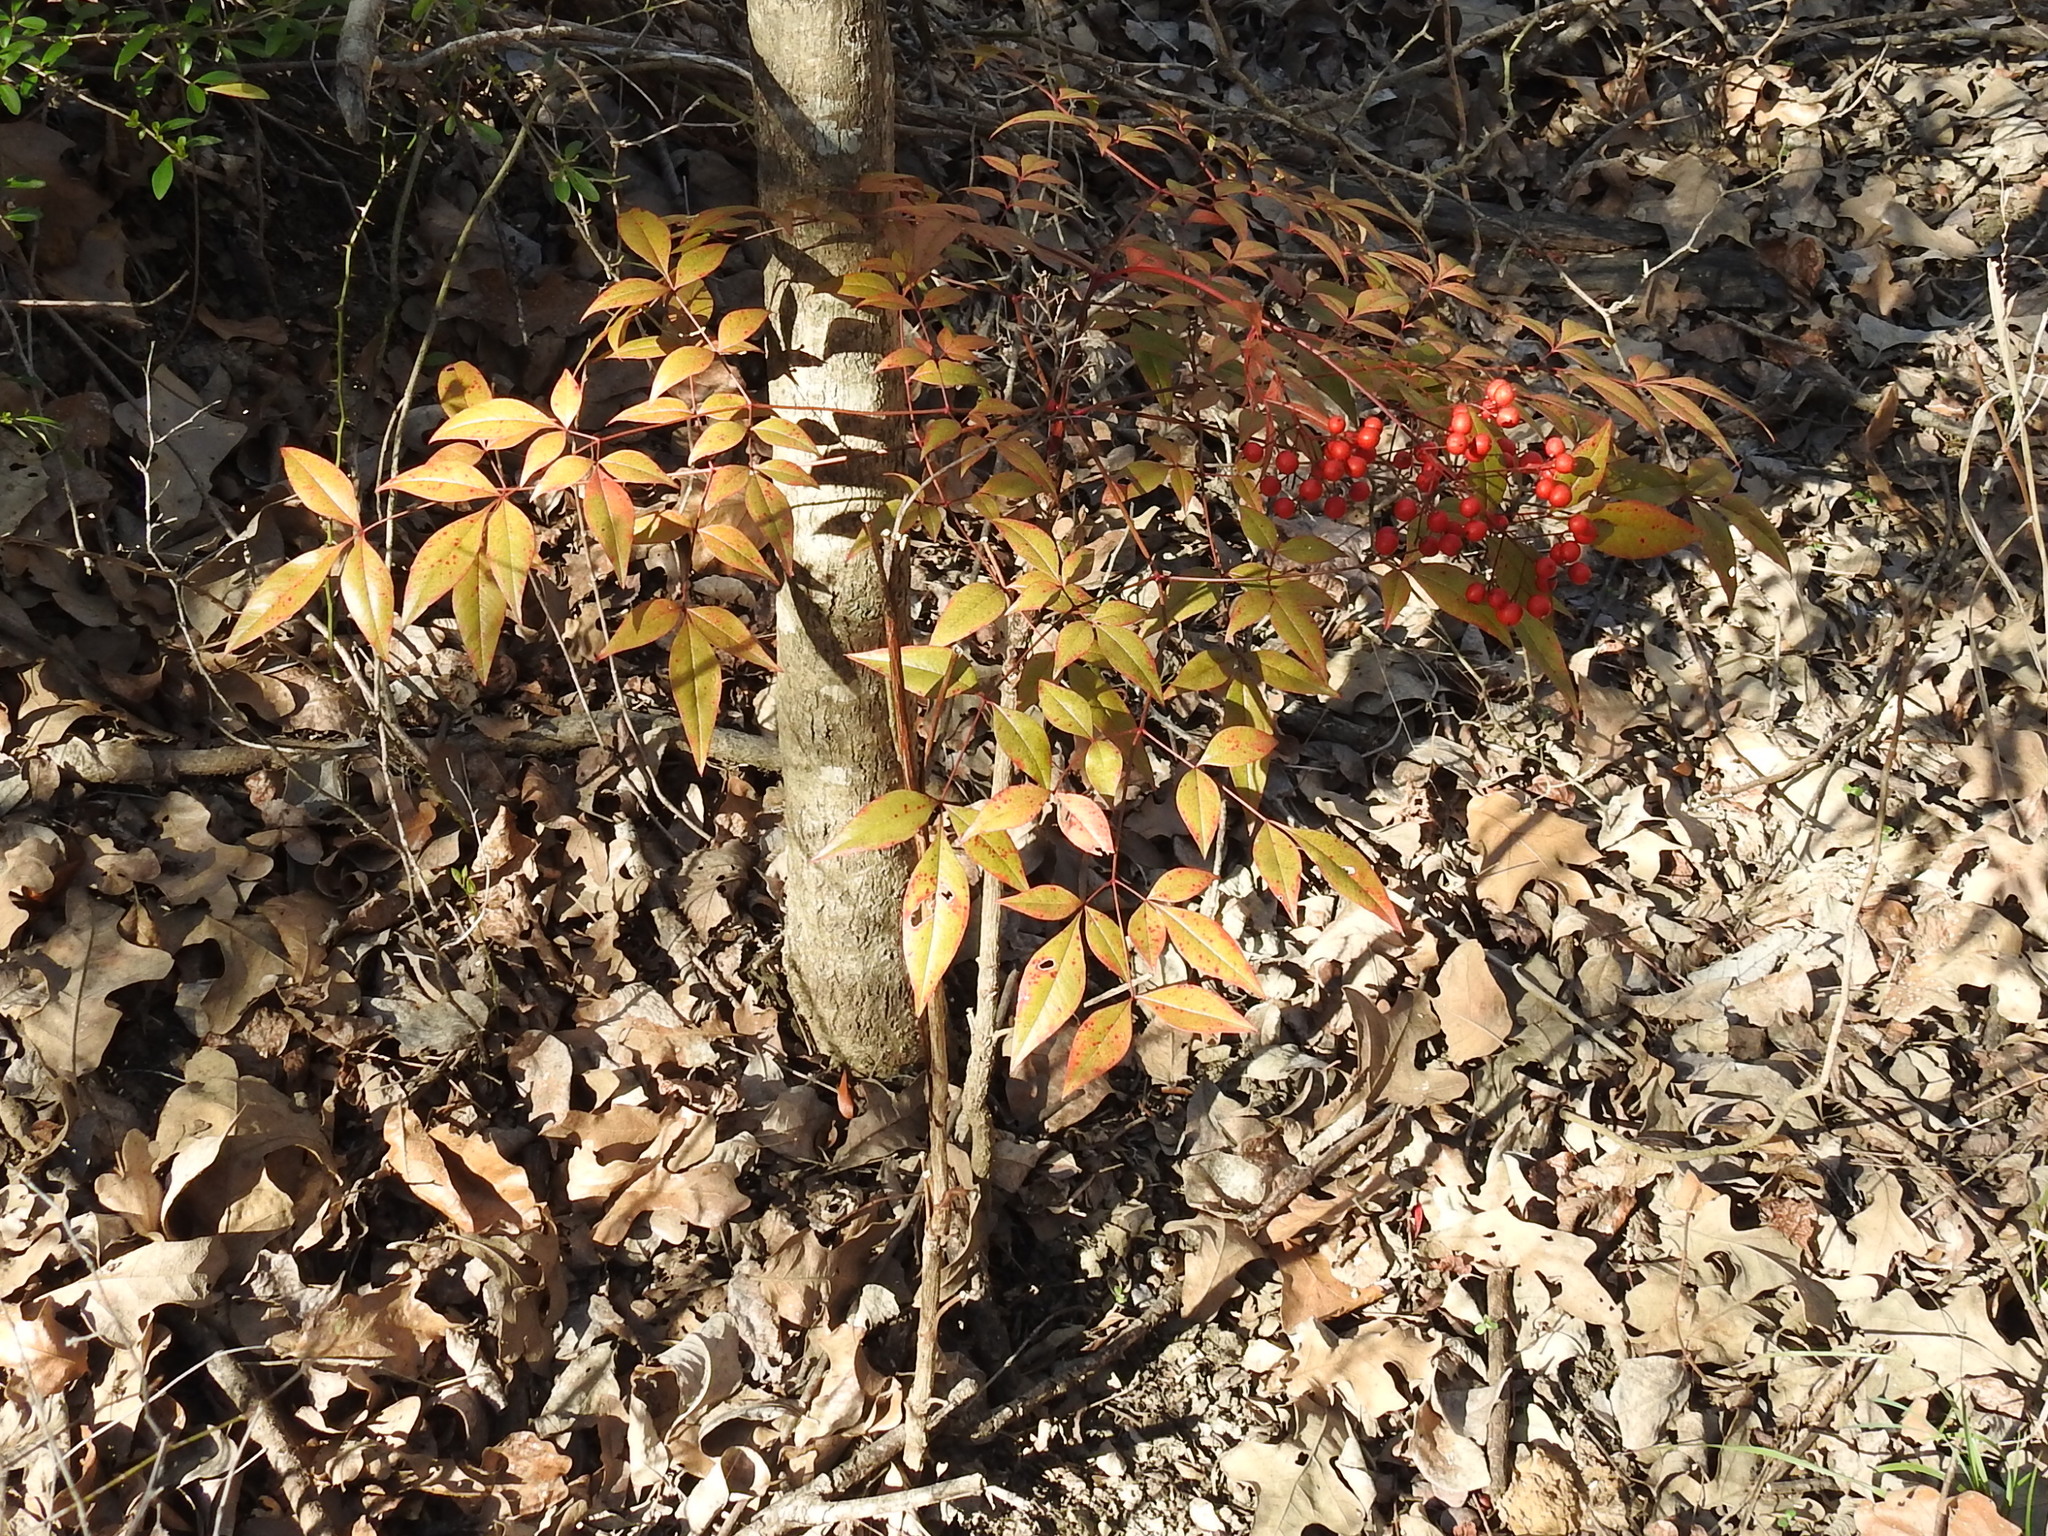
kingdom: Plantae
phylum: Tracheophyta
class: Magnoliopsida
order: Ranunculales
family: Berberidaceae
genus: Nandina
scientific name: Nandina domestica
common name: Sacred bamboo
